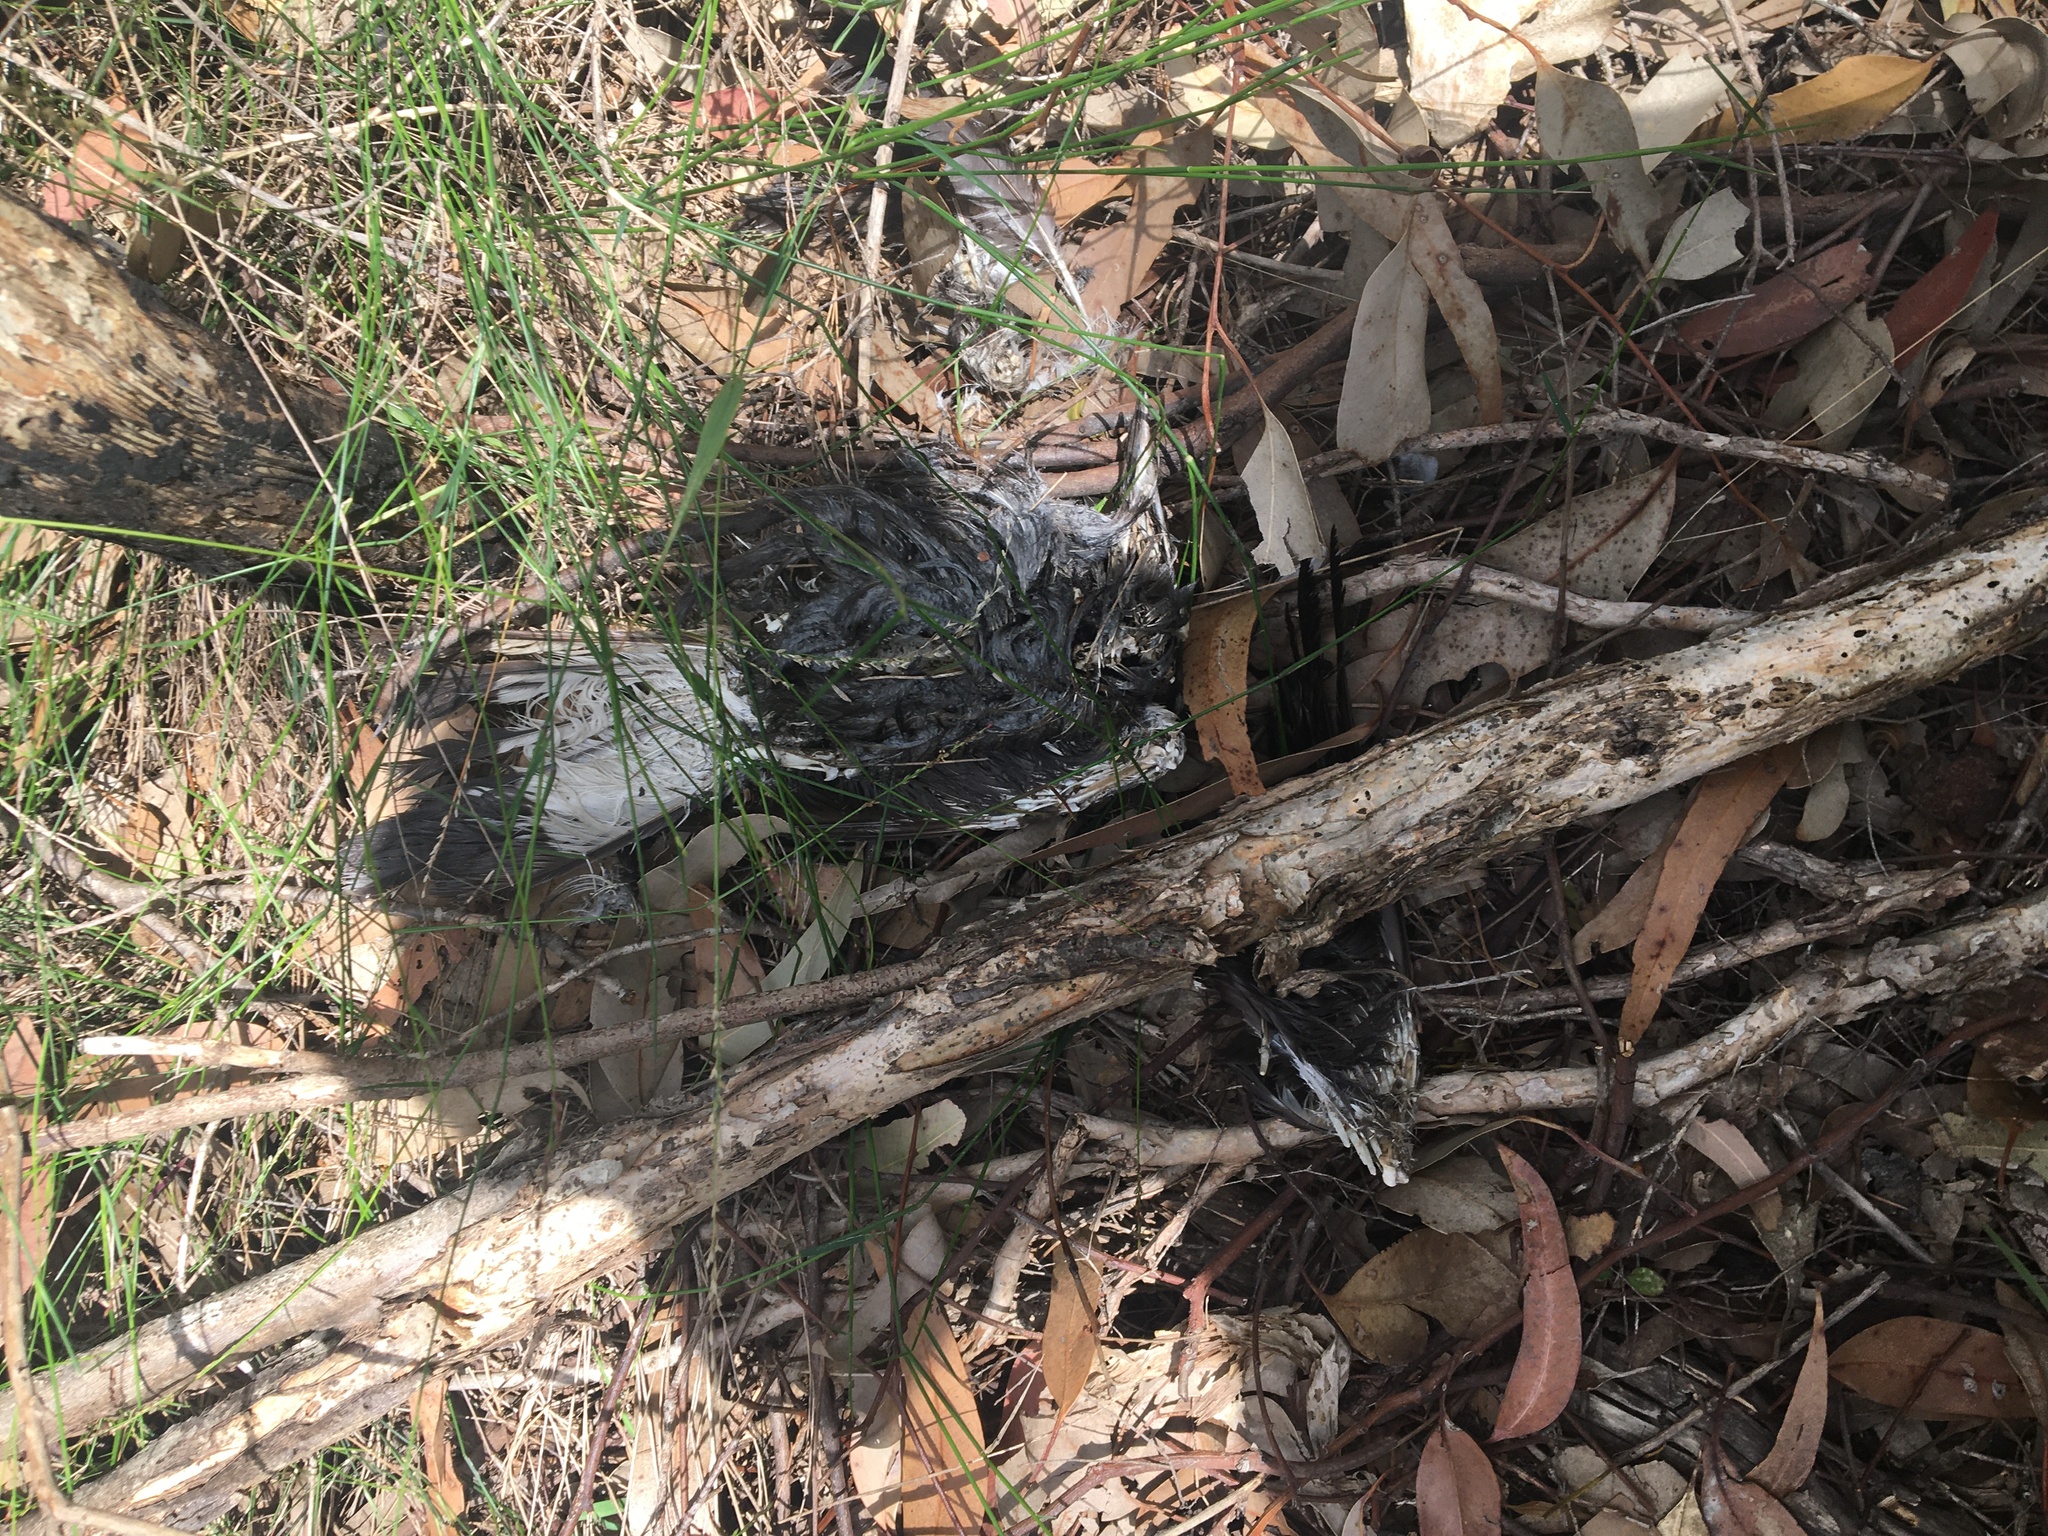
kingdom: Animalia
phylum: Chordata
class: Aves
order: Passeriformes
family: Cracticidae
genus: Gymnorhina
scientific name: Gymnorhina tibicen
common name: Australian magpie
